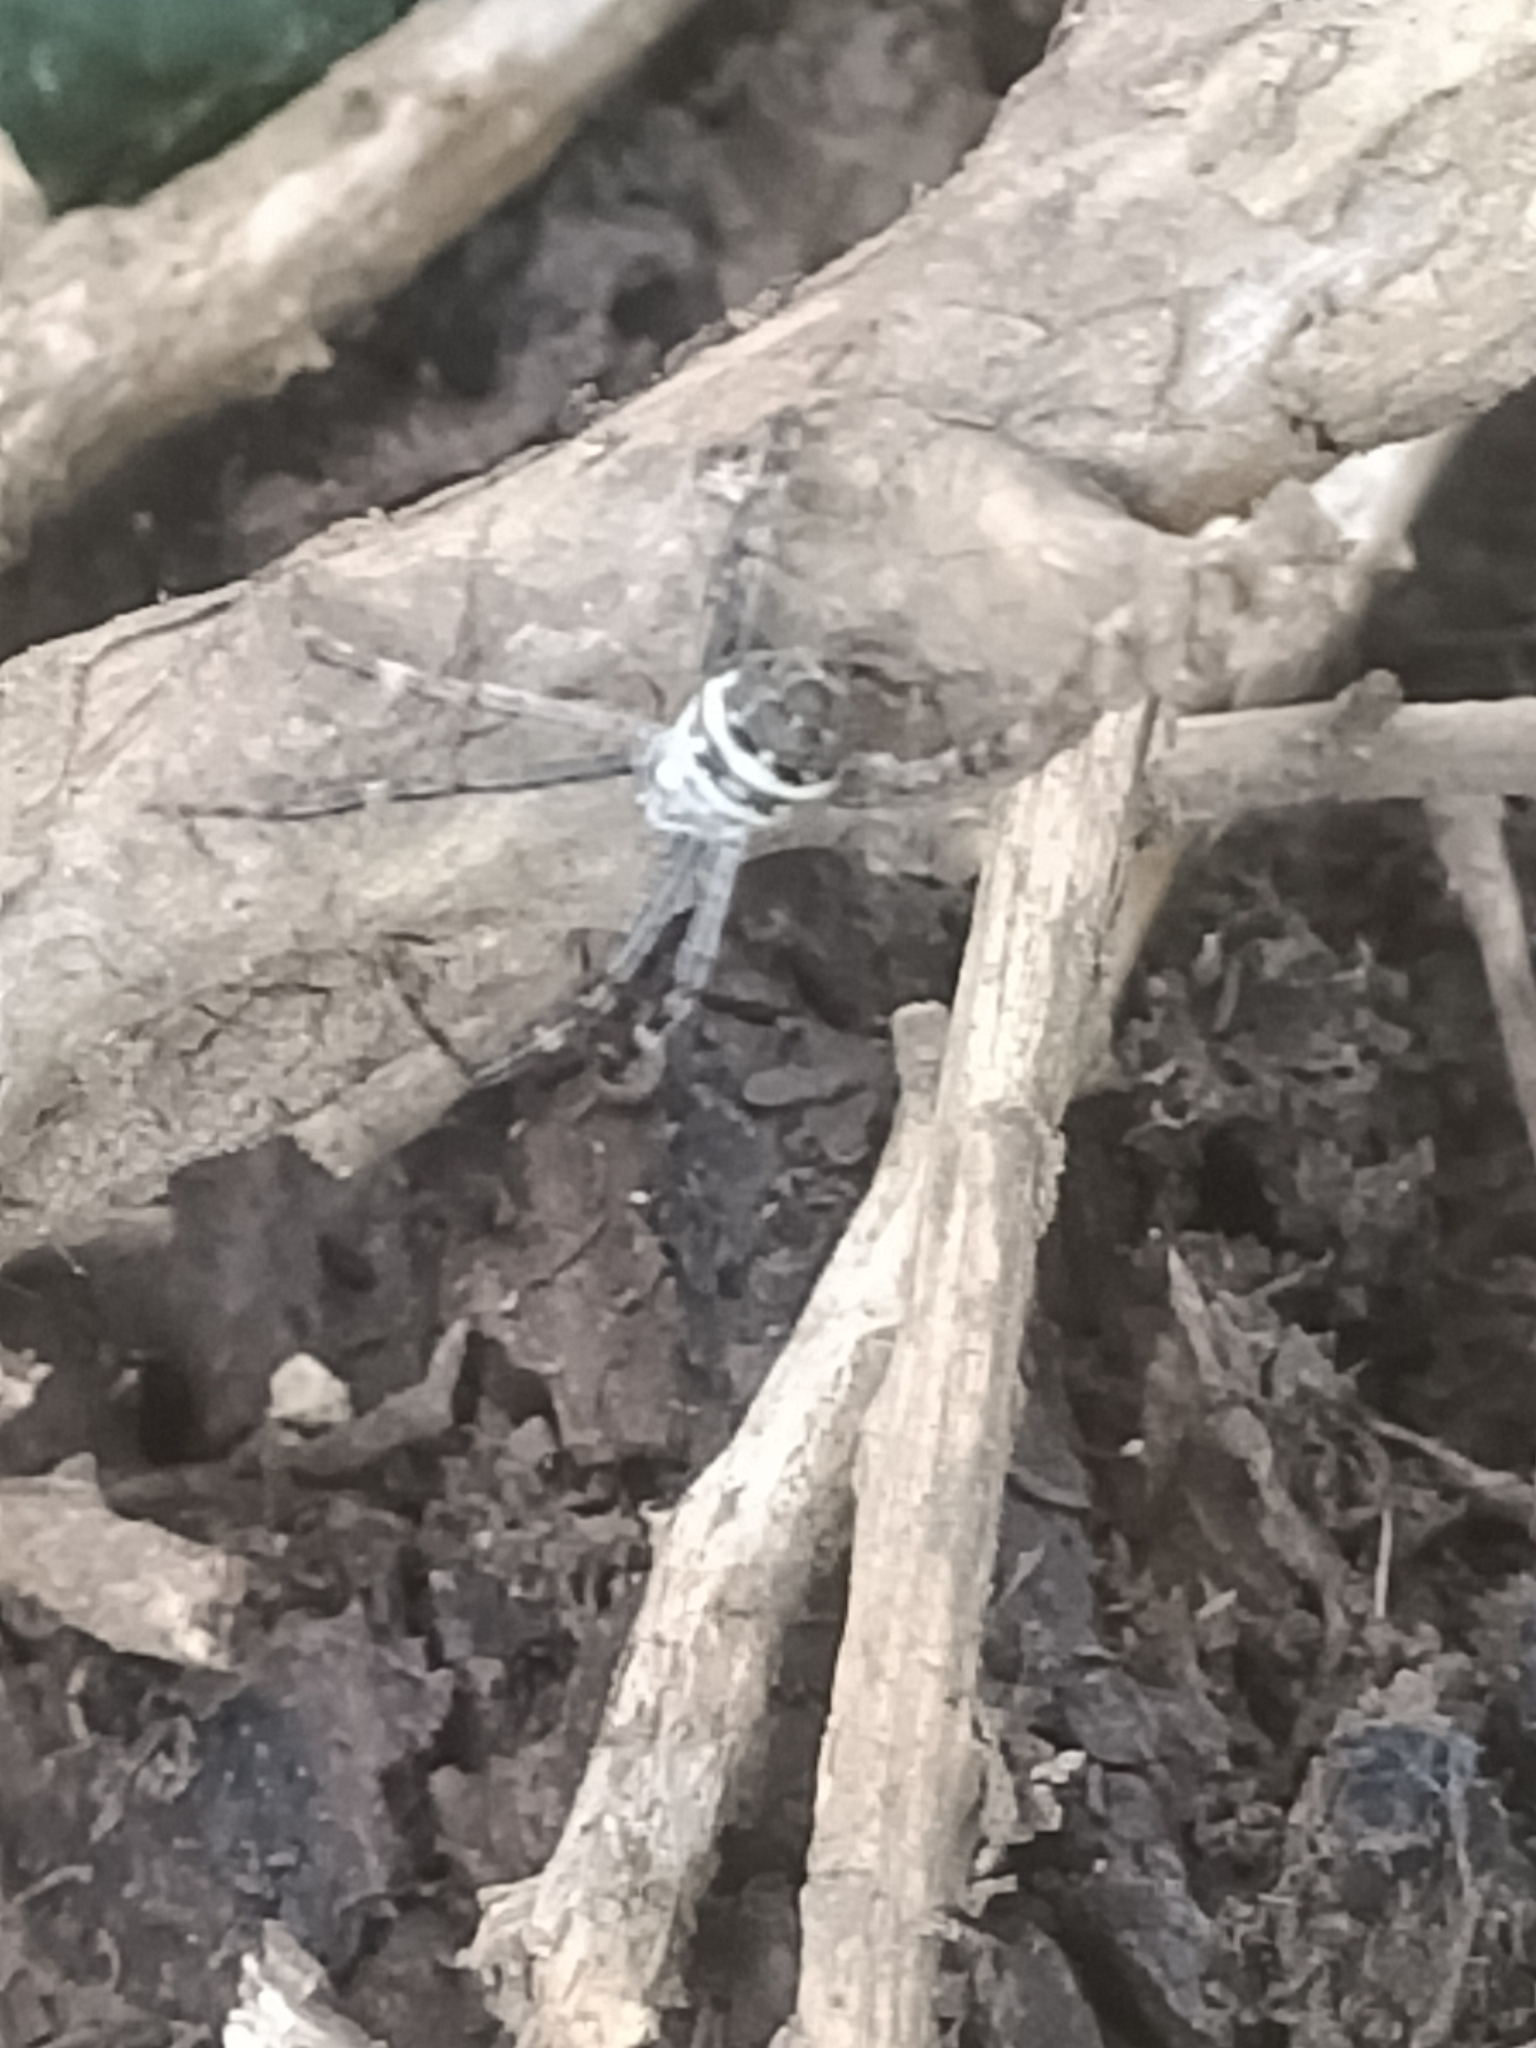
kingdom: Animalia
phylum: Arthropoda
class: Arachnida
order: Araneae
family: Araneidae
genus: Argiope
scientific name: Argiope keyserlingi
